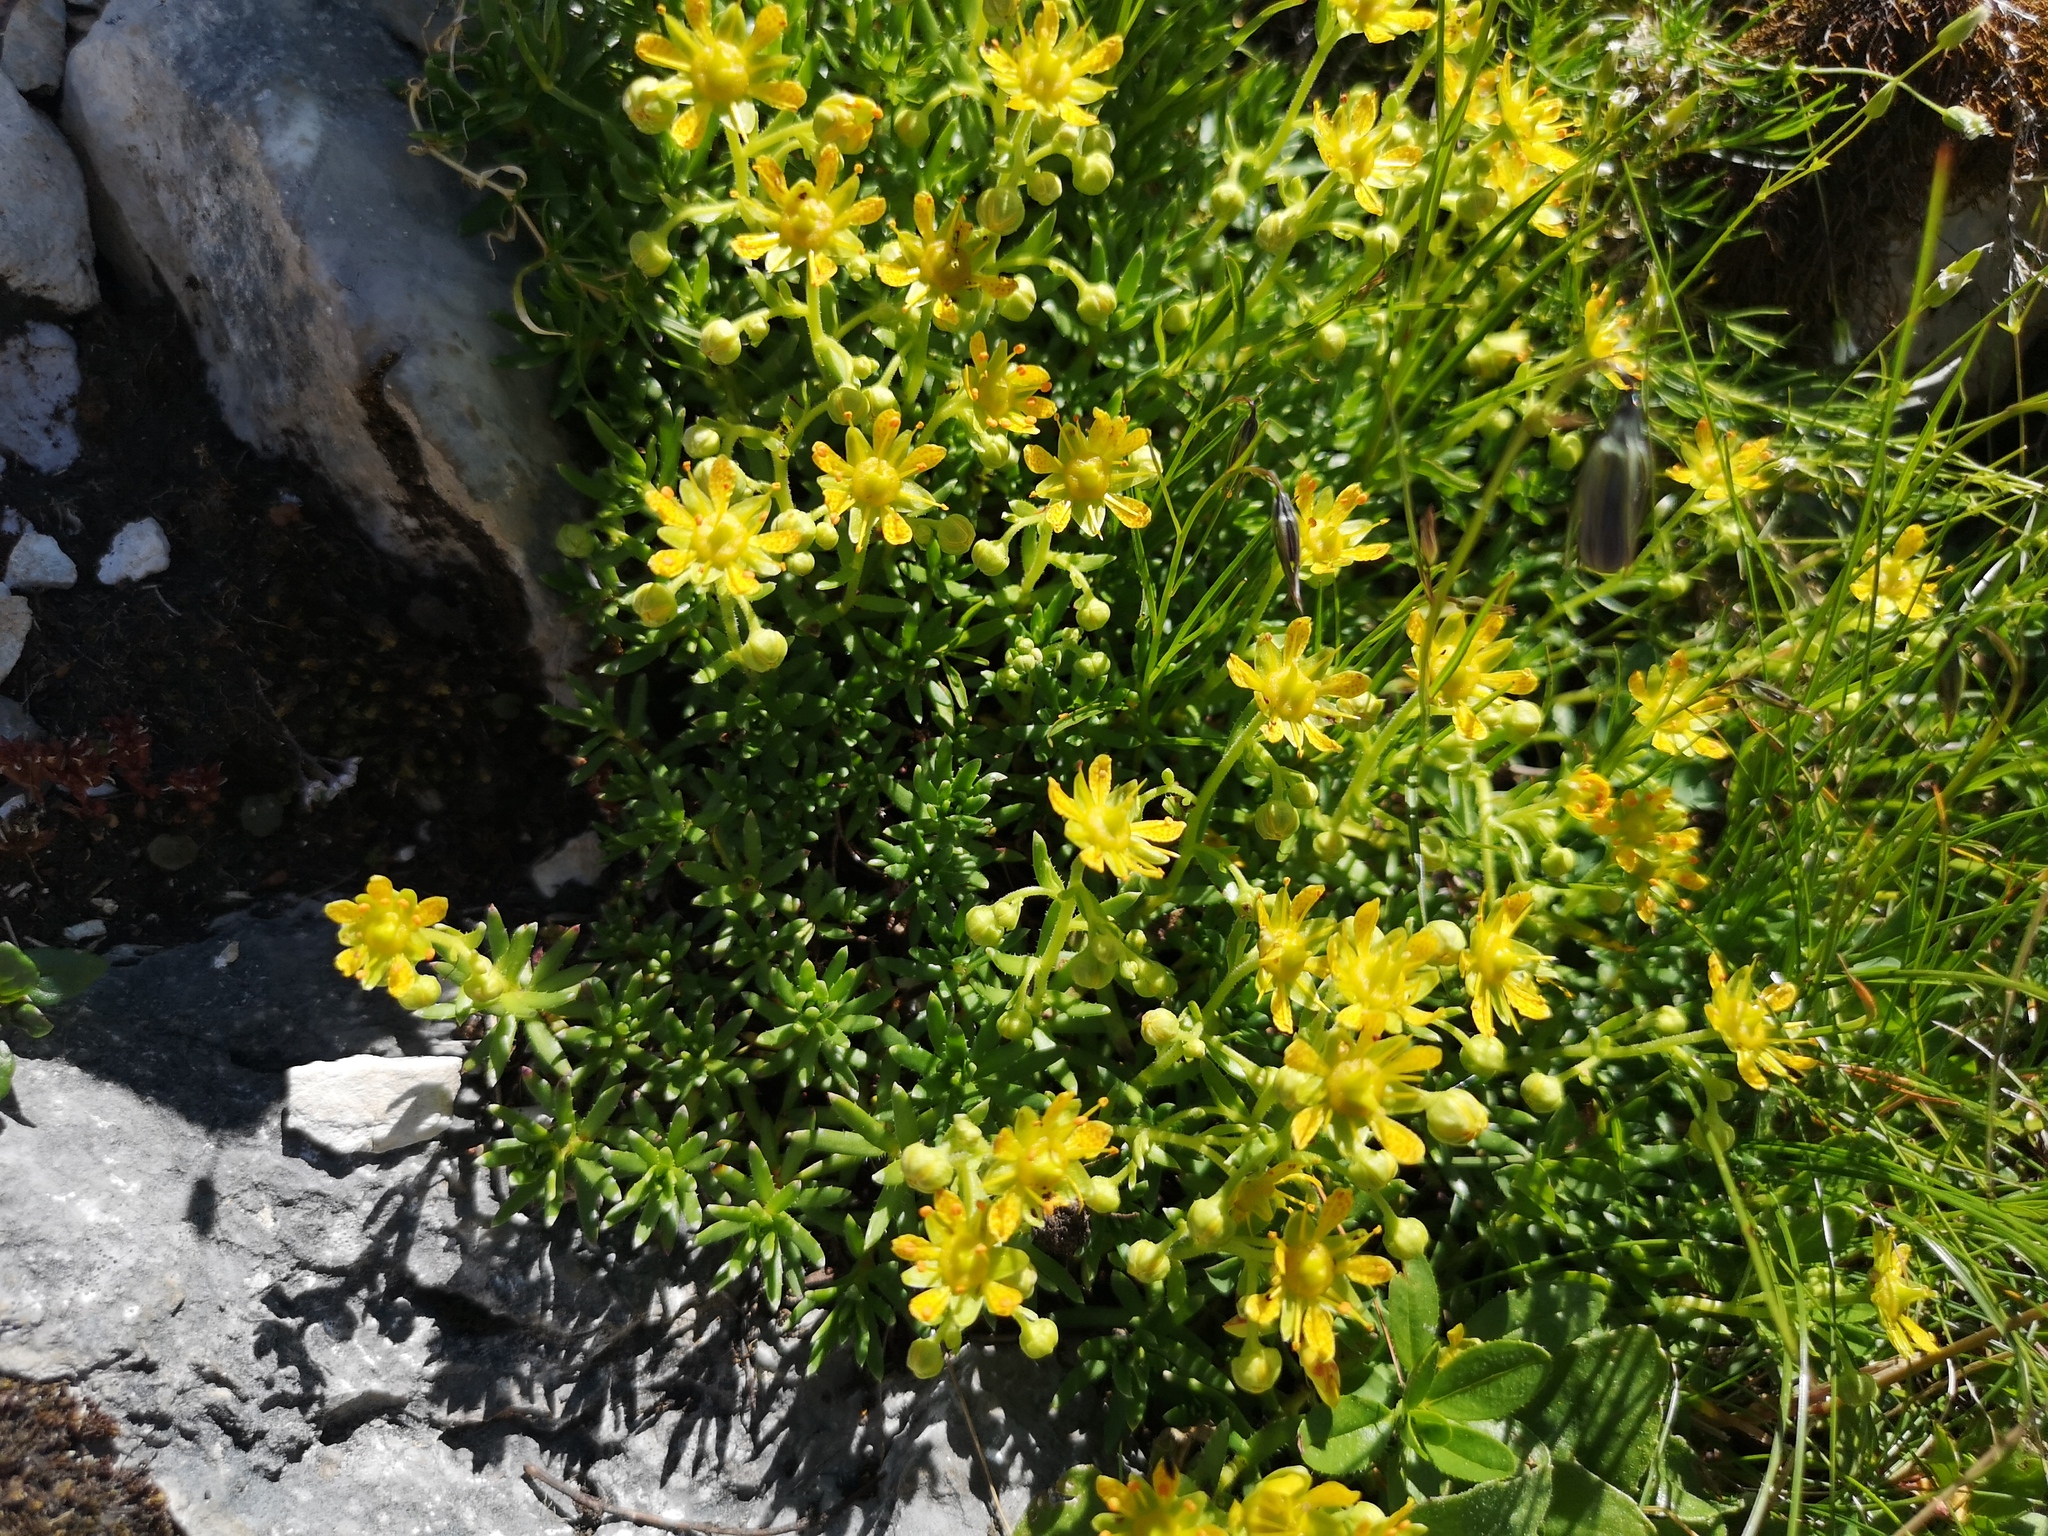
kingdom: Plantae
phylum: Tracheophyta
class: Magnoliopsida
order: Saxifragales
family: Saxifragaceae
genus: Saxifraga
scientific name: Saxifraga aizoides
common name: Yellow mountain saxifrage
